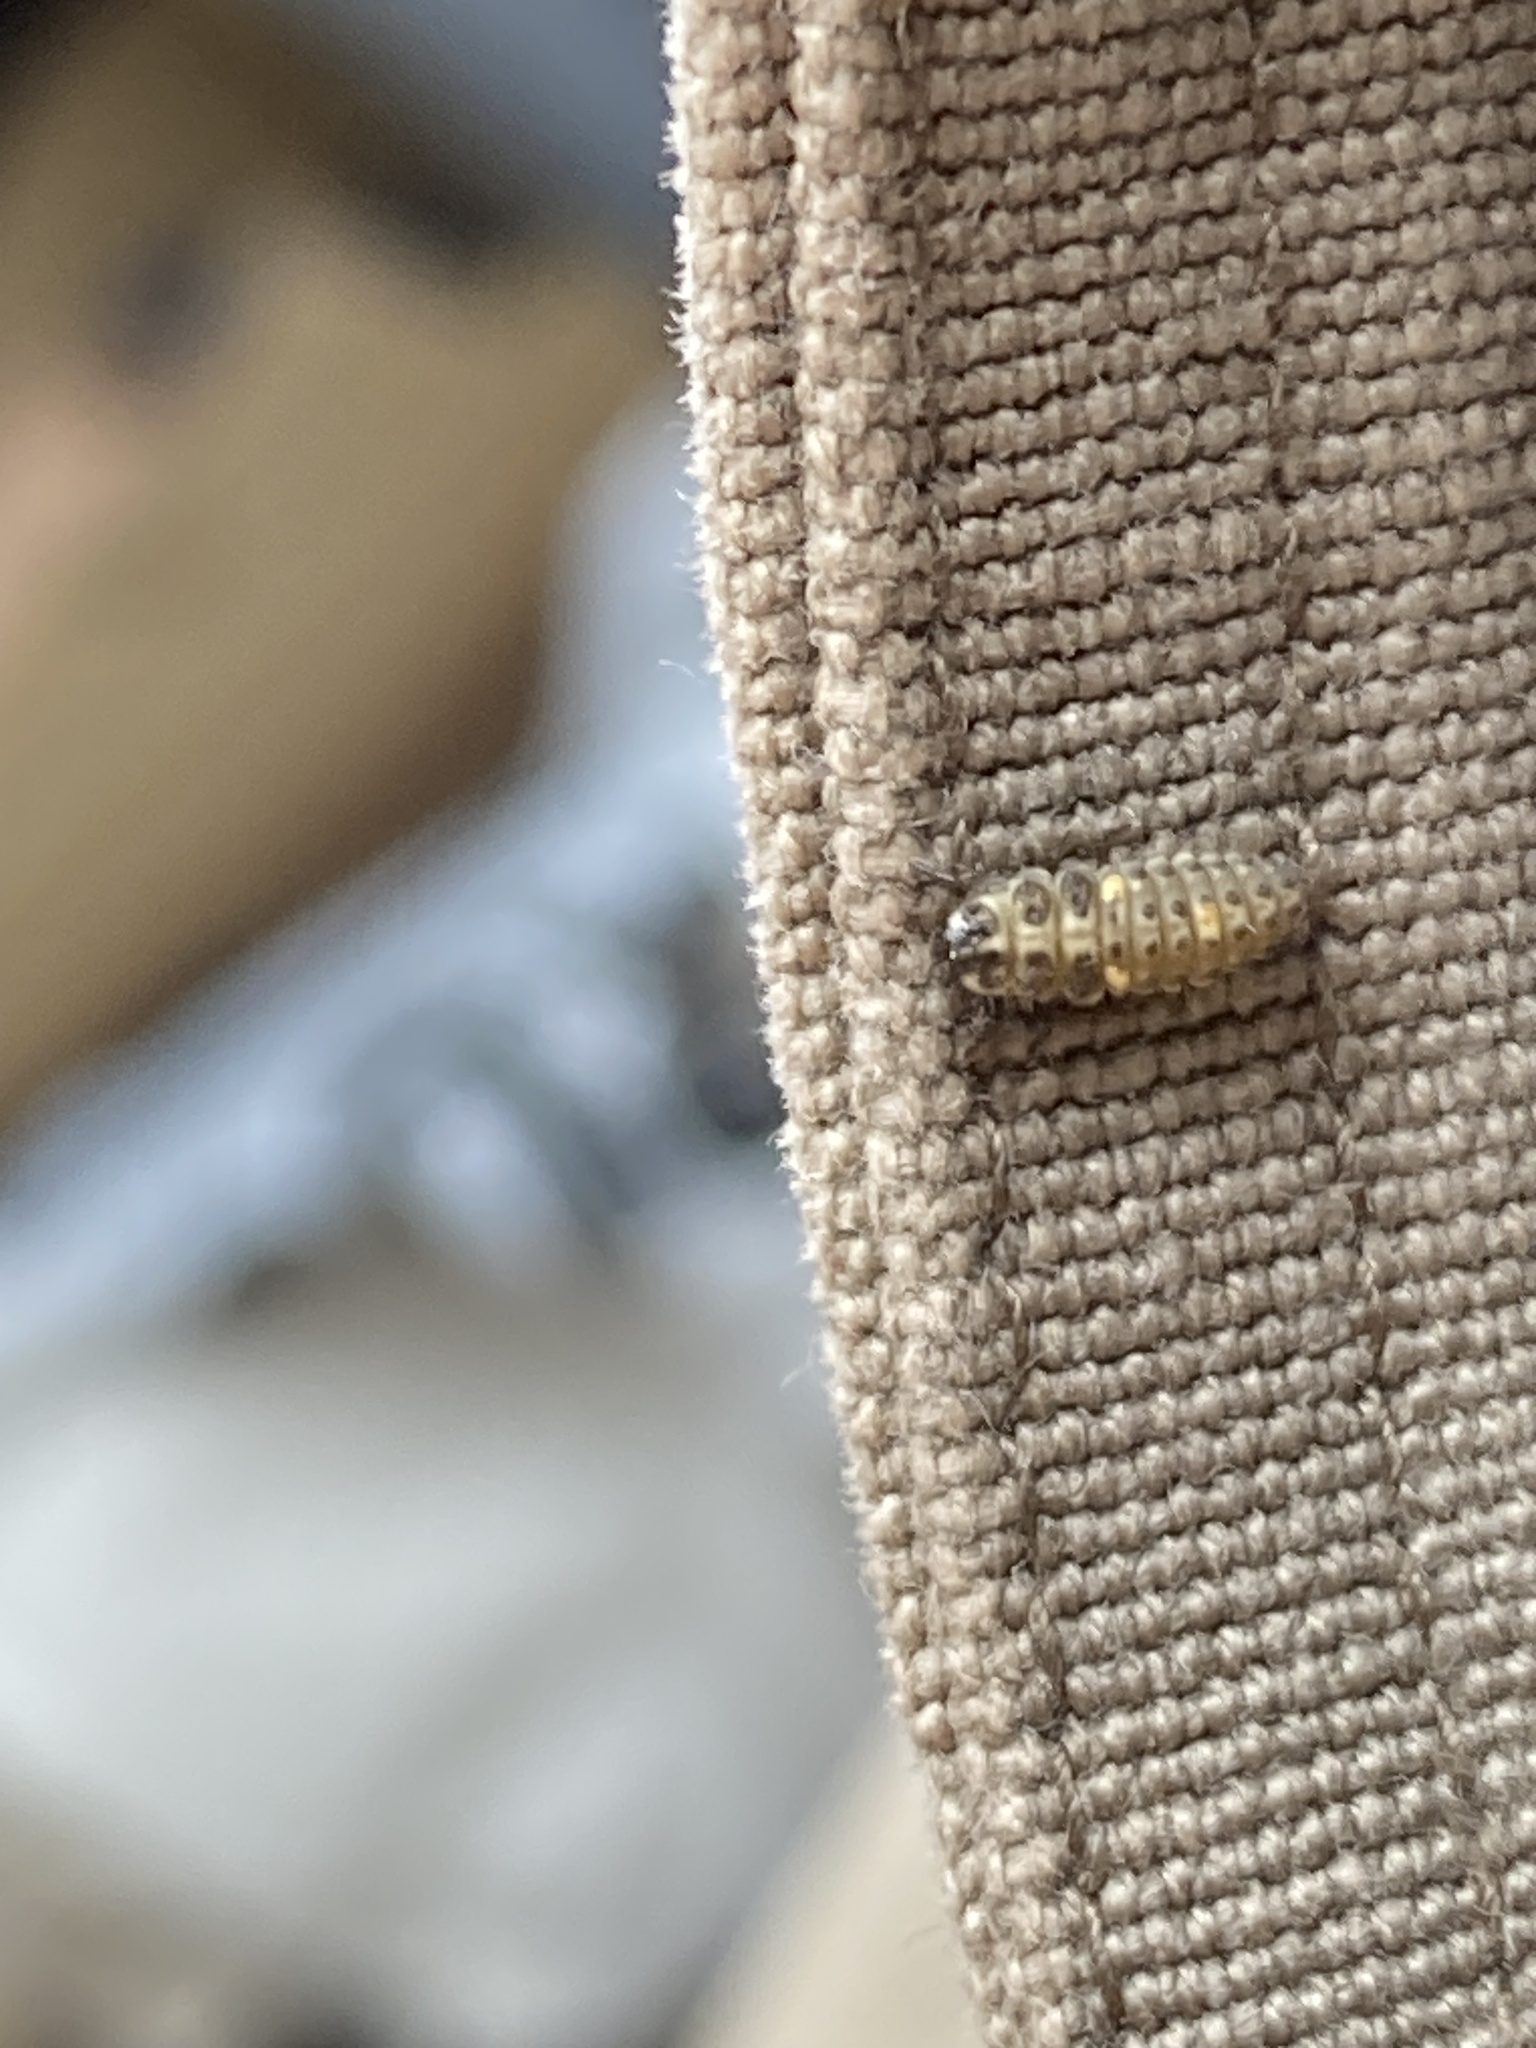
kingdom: Animalia
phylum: Arthropoda
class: Insecta
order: Coleoptera
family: Coccinellidae
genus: Adalia
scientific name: Adalia decempunctata
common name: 10-spot ladybird
